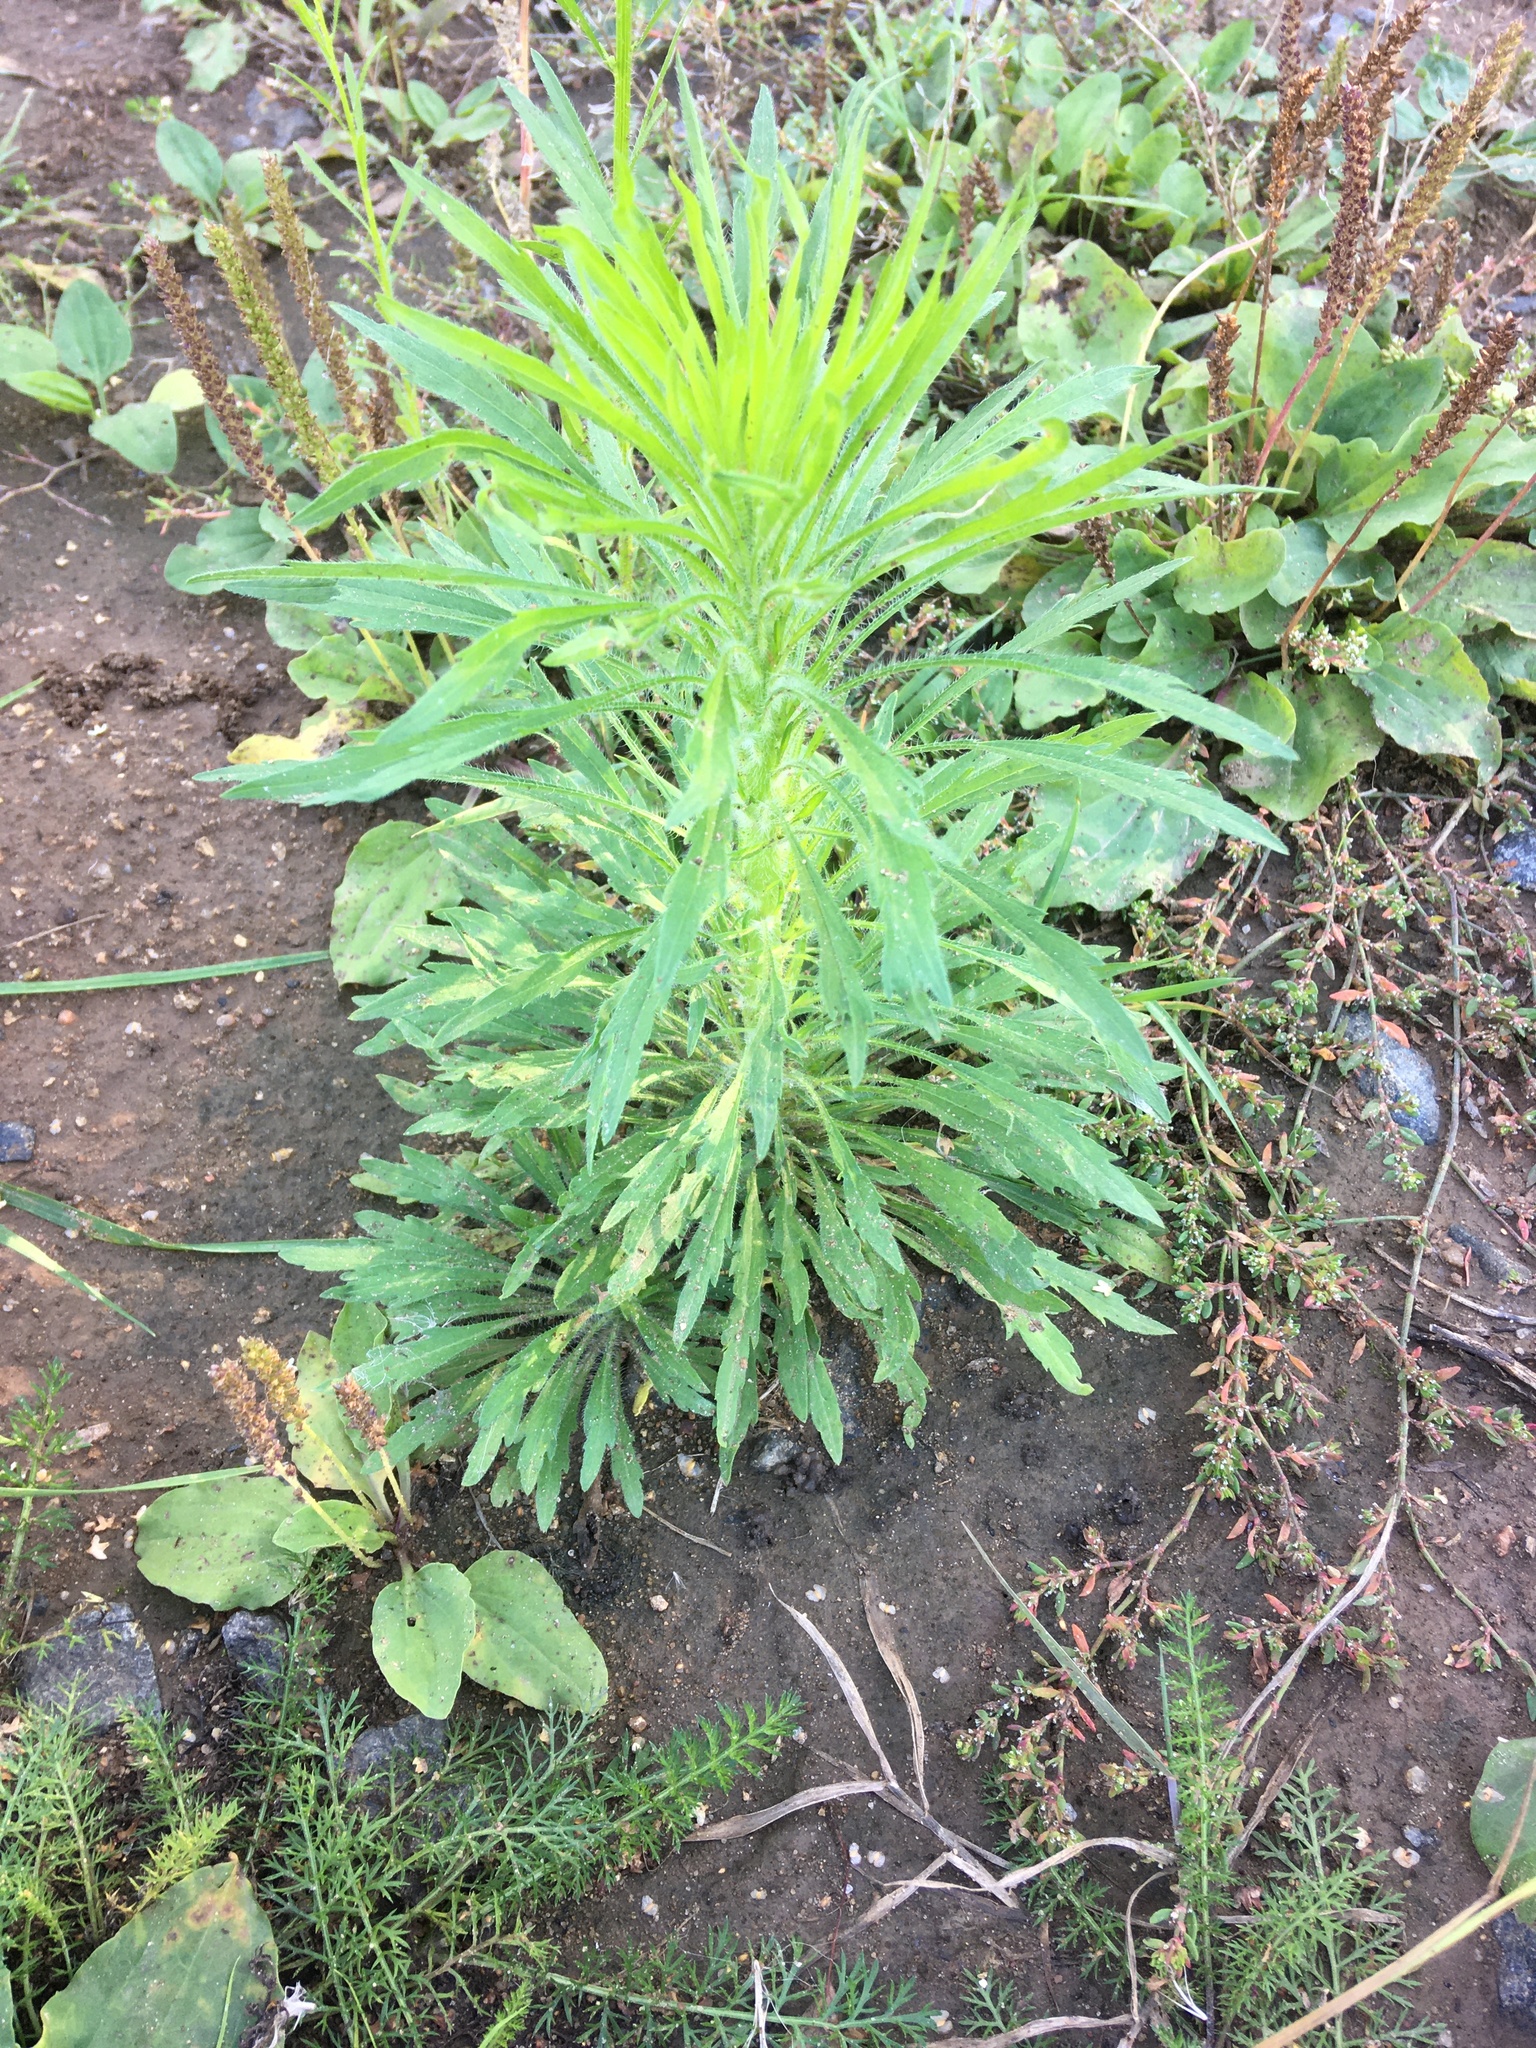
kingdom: Plantae
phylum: Tracheophyta
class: Magnoliopsida
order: Asterales
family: Asteraceae
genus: Erigeron
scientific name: Erigeron canadensis
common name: Canadian fleabane
